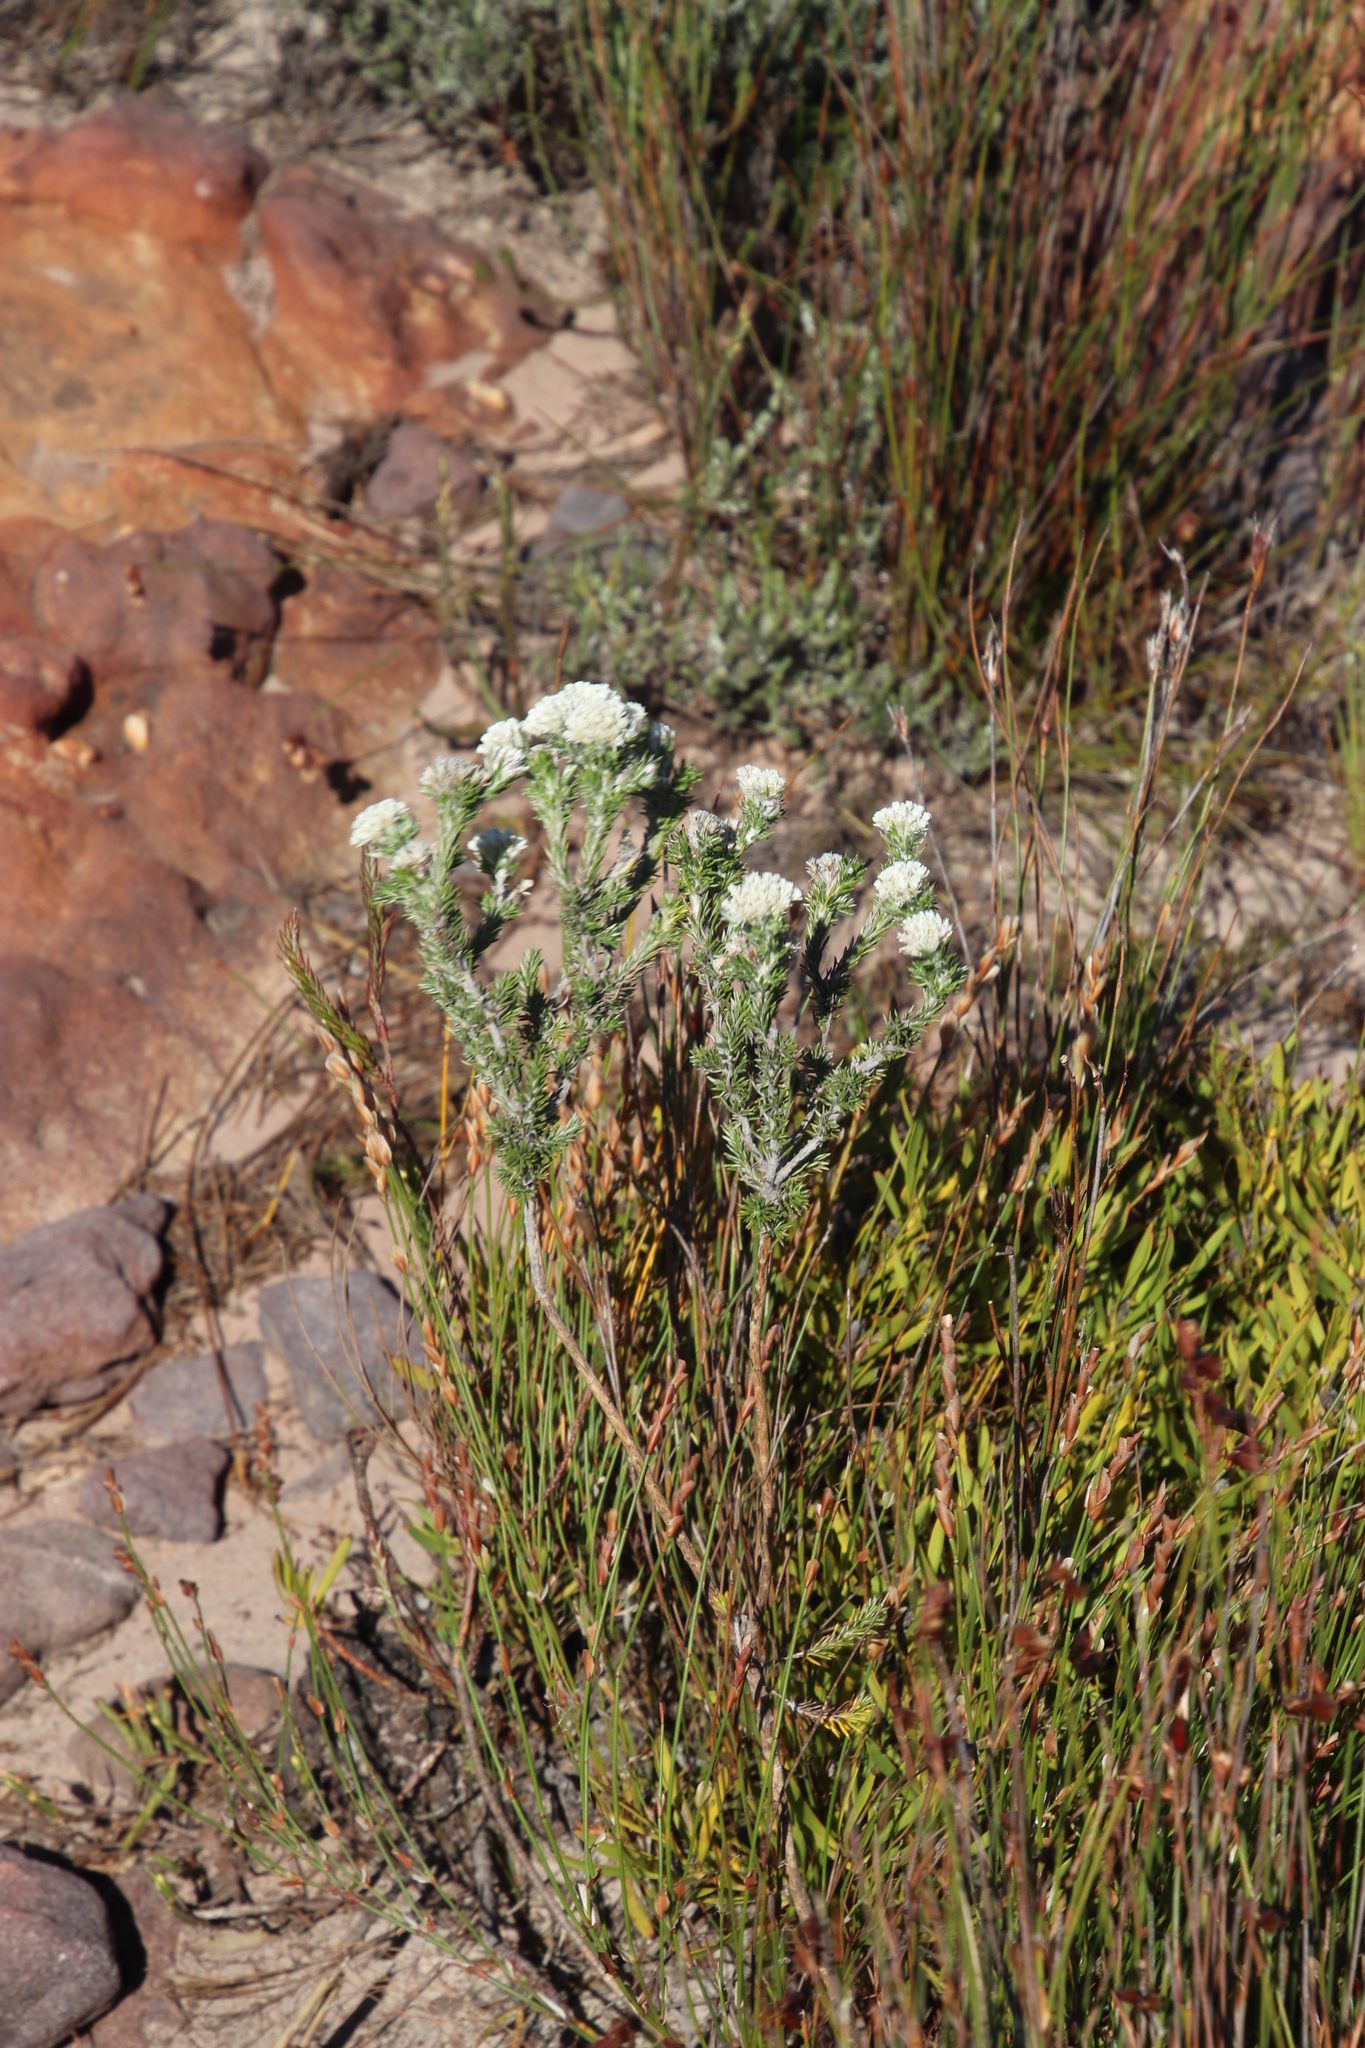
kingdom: Plantae
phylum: Tracheophyta
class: Magnoliopsida
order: Asterales
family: Asteraceae
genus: Metalasia
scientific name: Metalasia compacta
